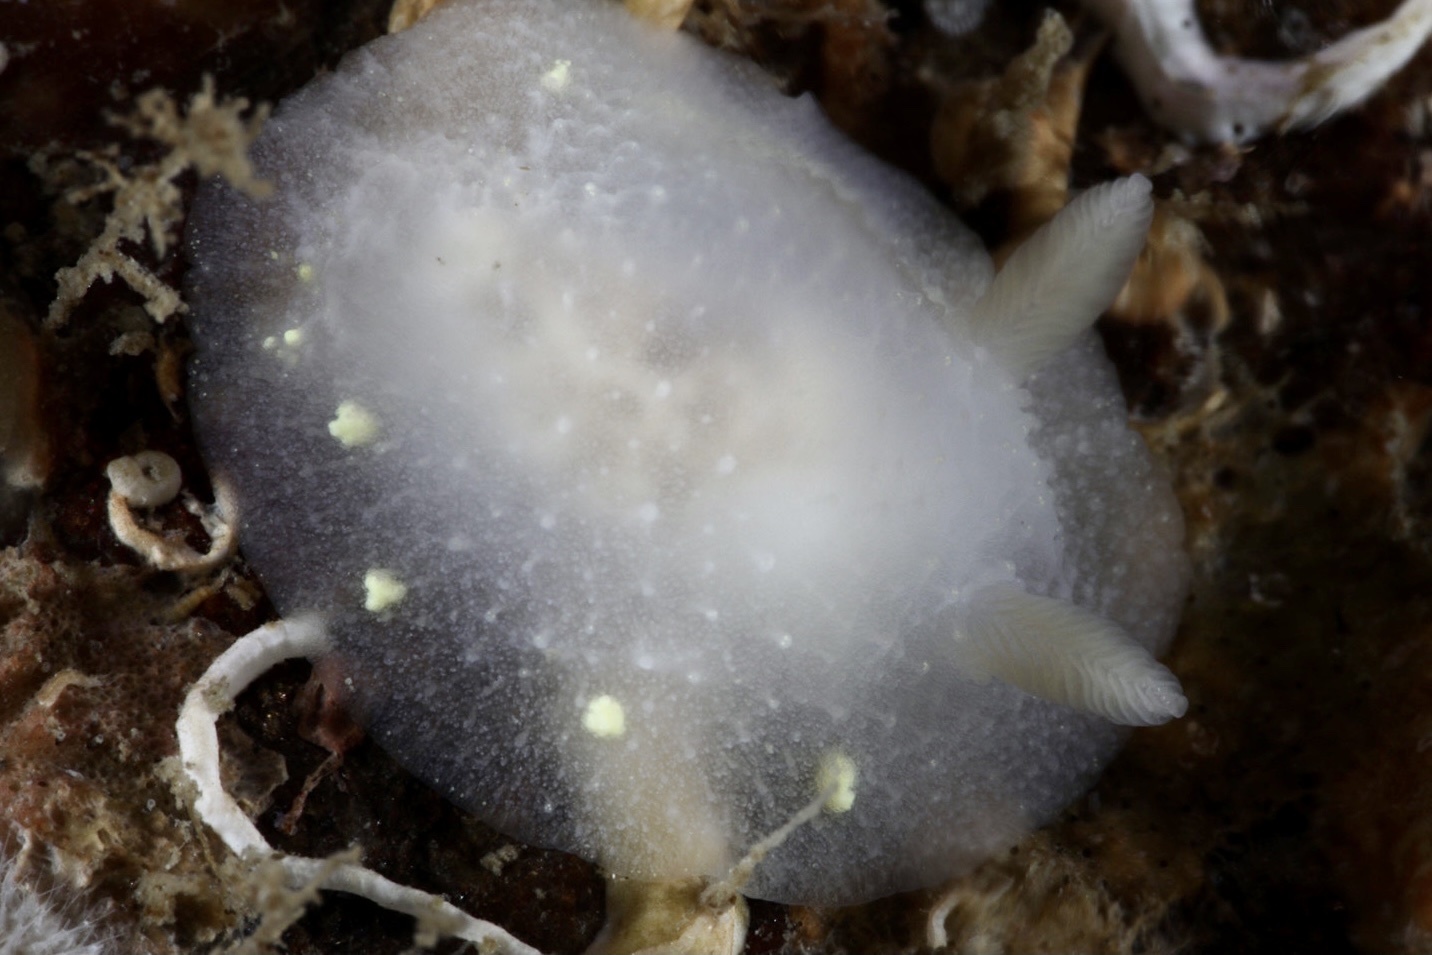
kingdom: Animalia
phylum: Mollusca
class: Gastropoda
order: Nudibranchia
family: Cadlinidae
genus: Cadlina
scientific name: Cadlina laevis
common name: White atlantic cadlina
